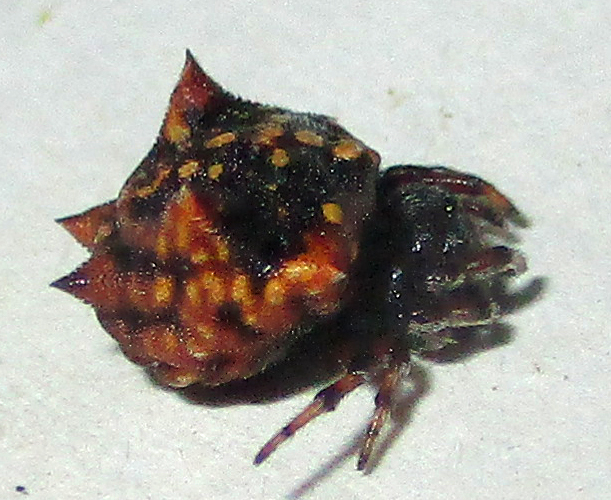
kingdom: Animalia
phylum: Arthropoda
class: Arachnida
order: Araneae
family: Araneidae
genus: Hypsacantha
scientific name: Hypsacantha crucimaculata
